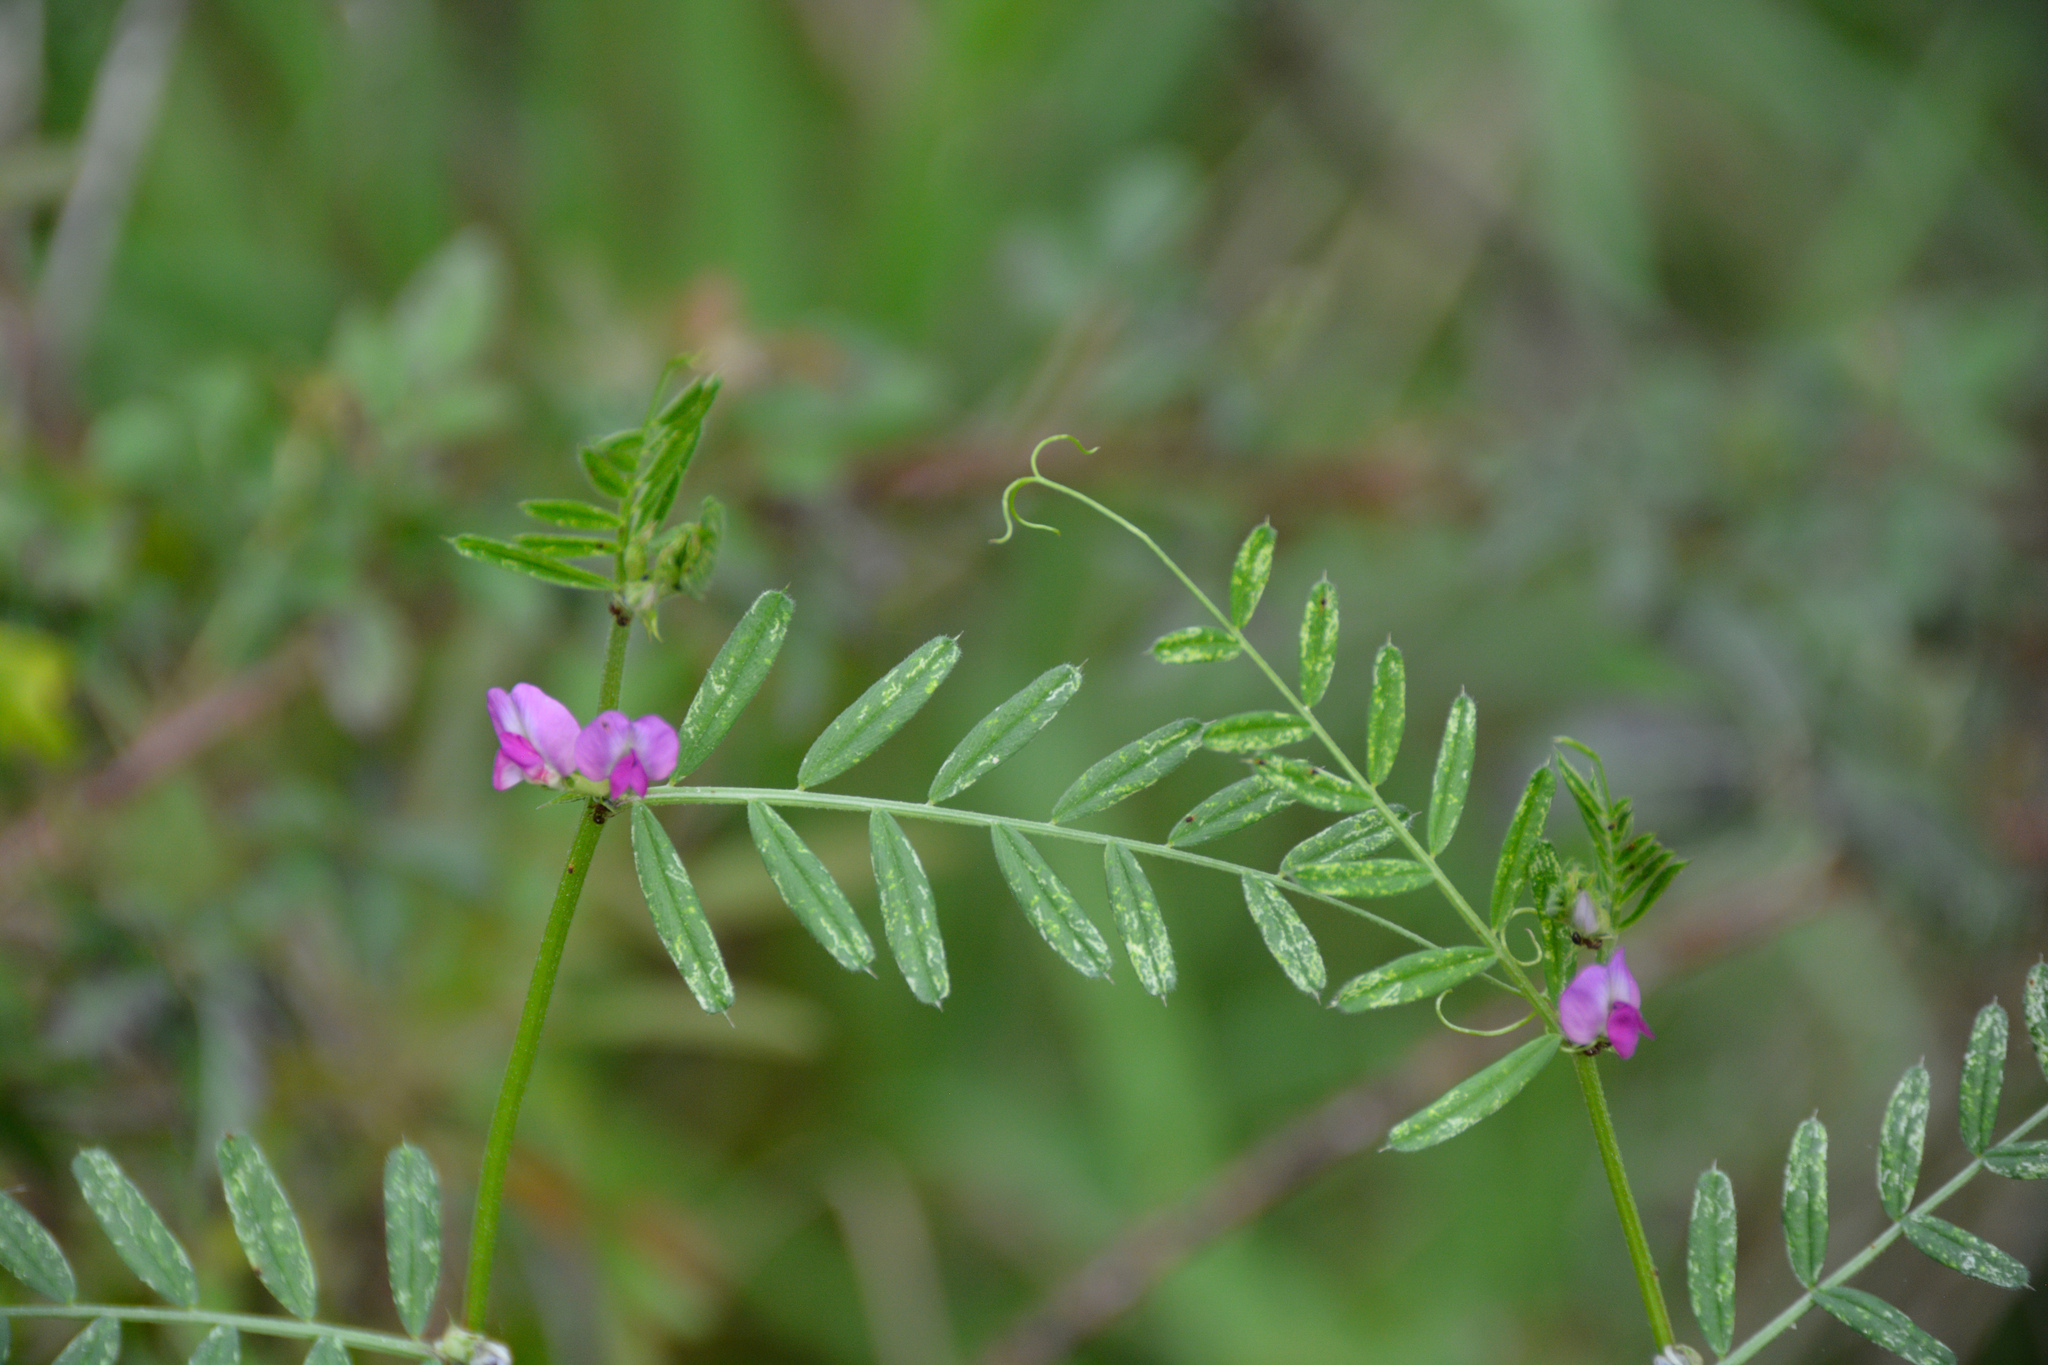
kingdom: Plantae
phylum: Tracheophyta
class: Magnoliopsida
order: Fabales
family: Fabaceae
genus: Vicia
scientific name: Vicia sativa
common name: Garden vetch
